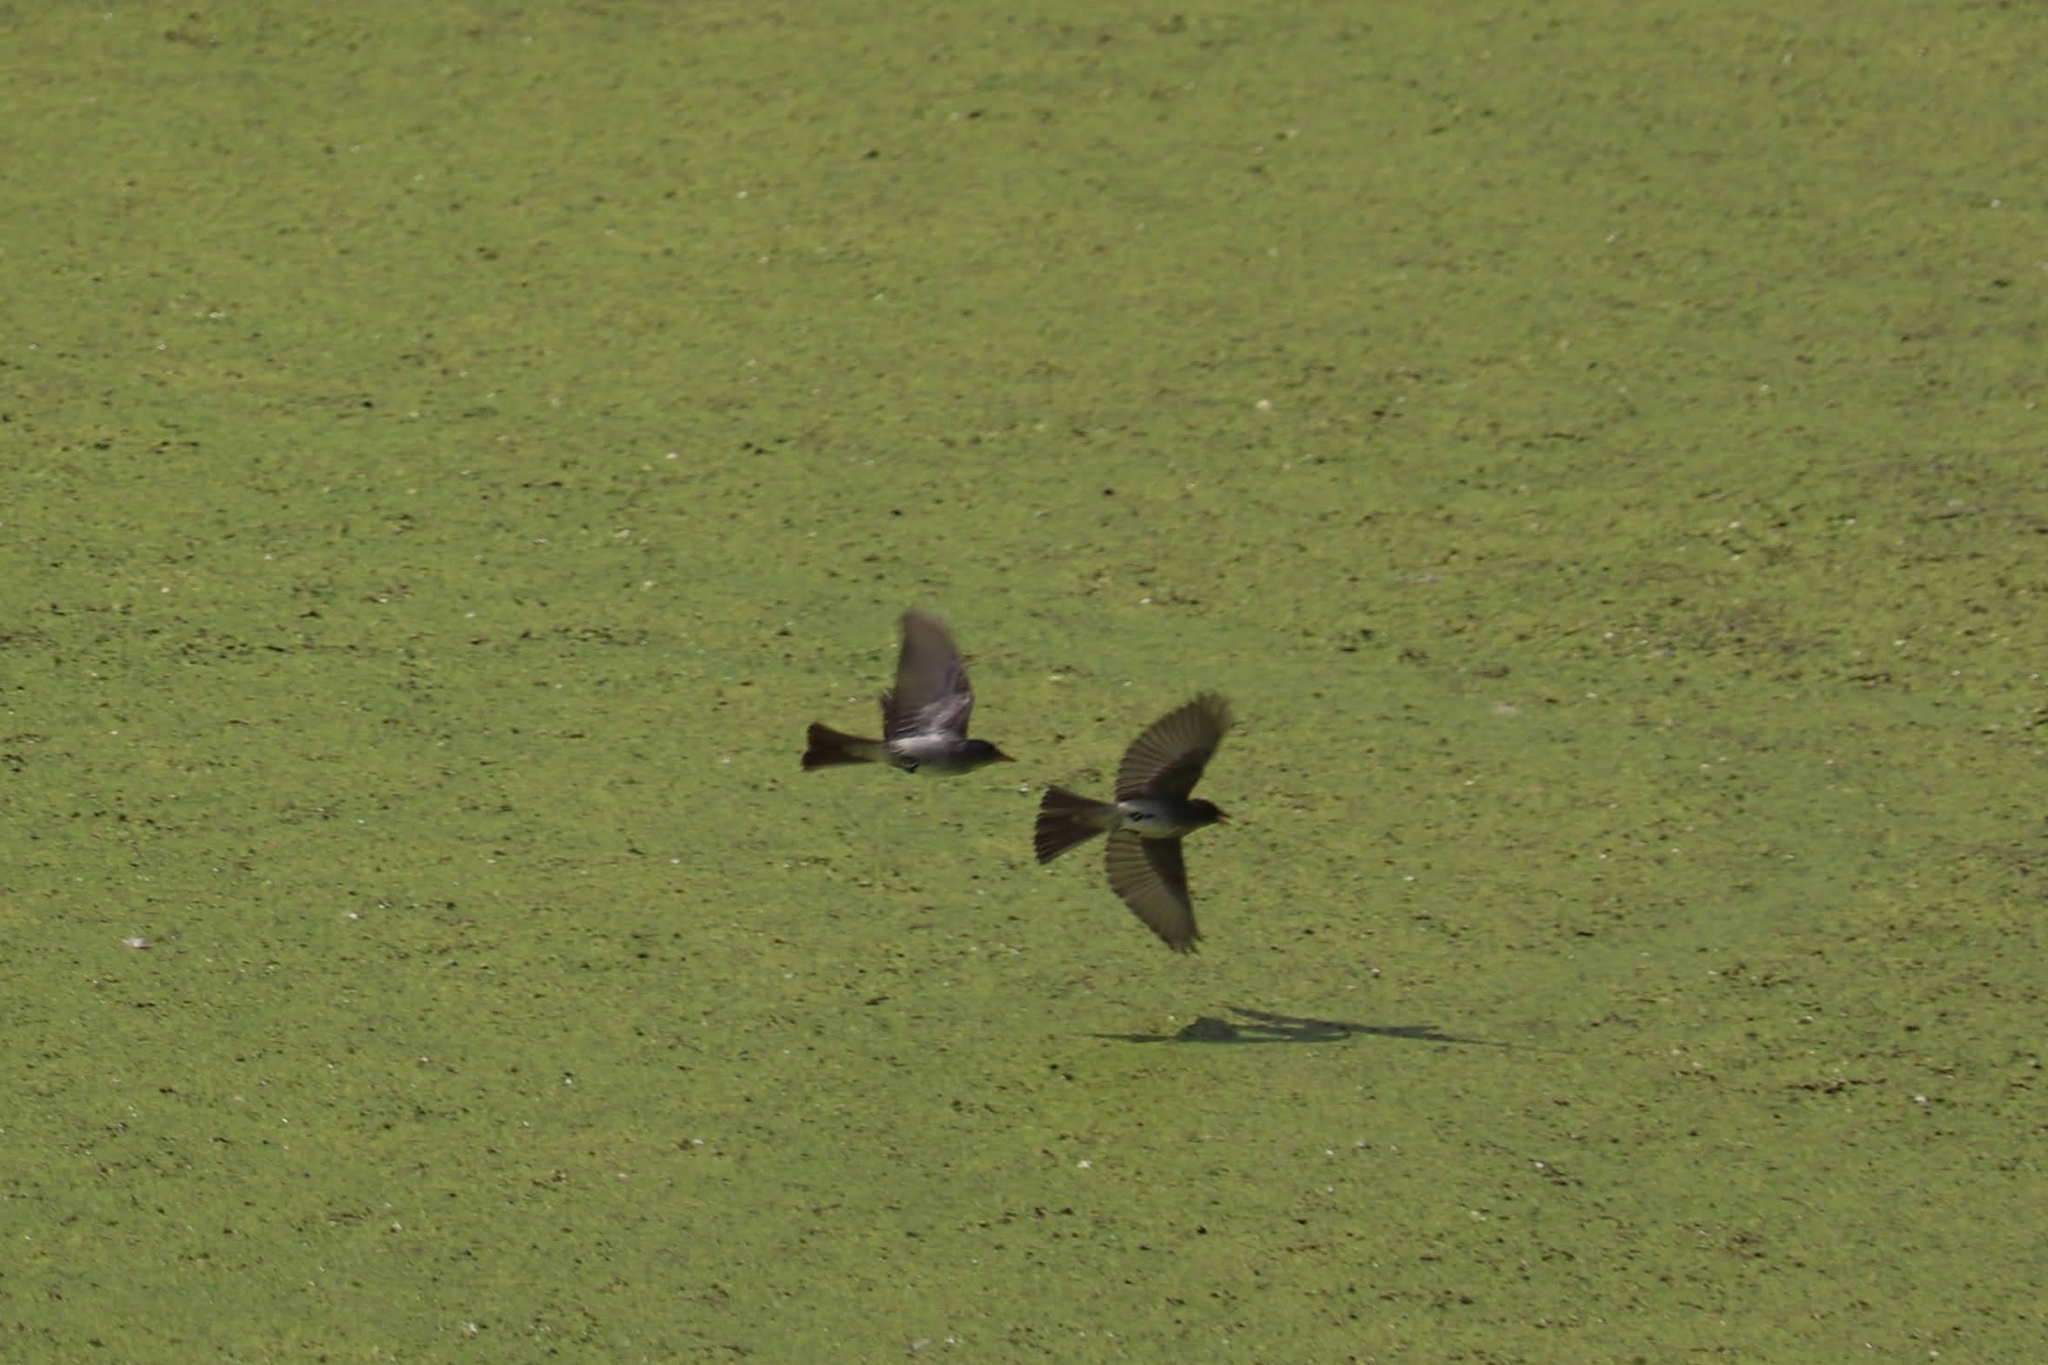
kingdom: Animalia
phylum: Chordata
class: Aves
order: Passeriformes
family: Tyrannidae
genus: Sayornis
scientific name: Sayornis phoebe
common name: Eastern phoebe
